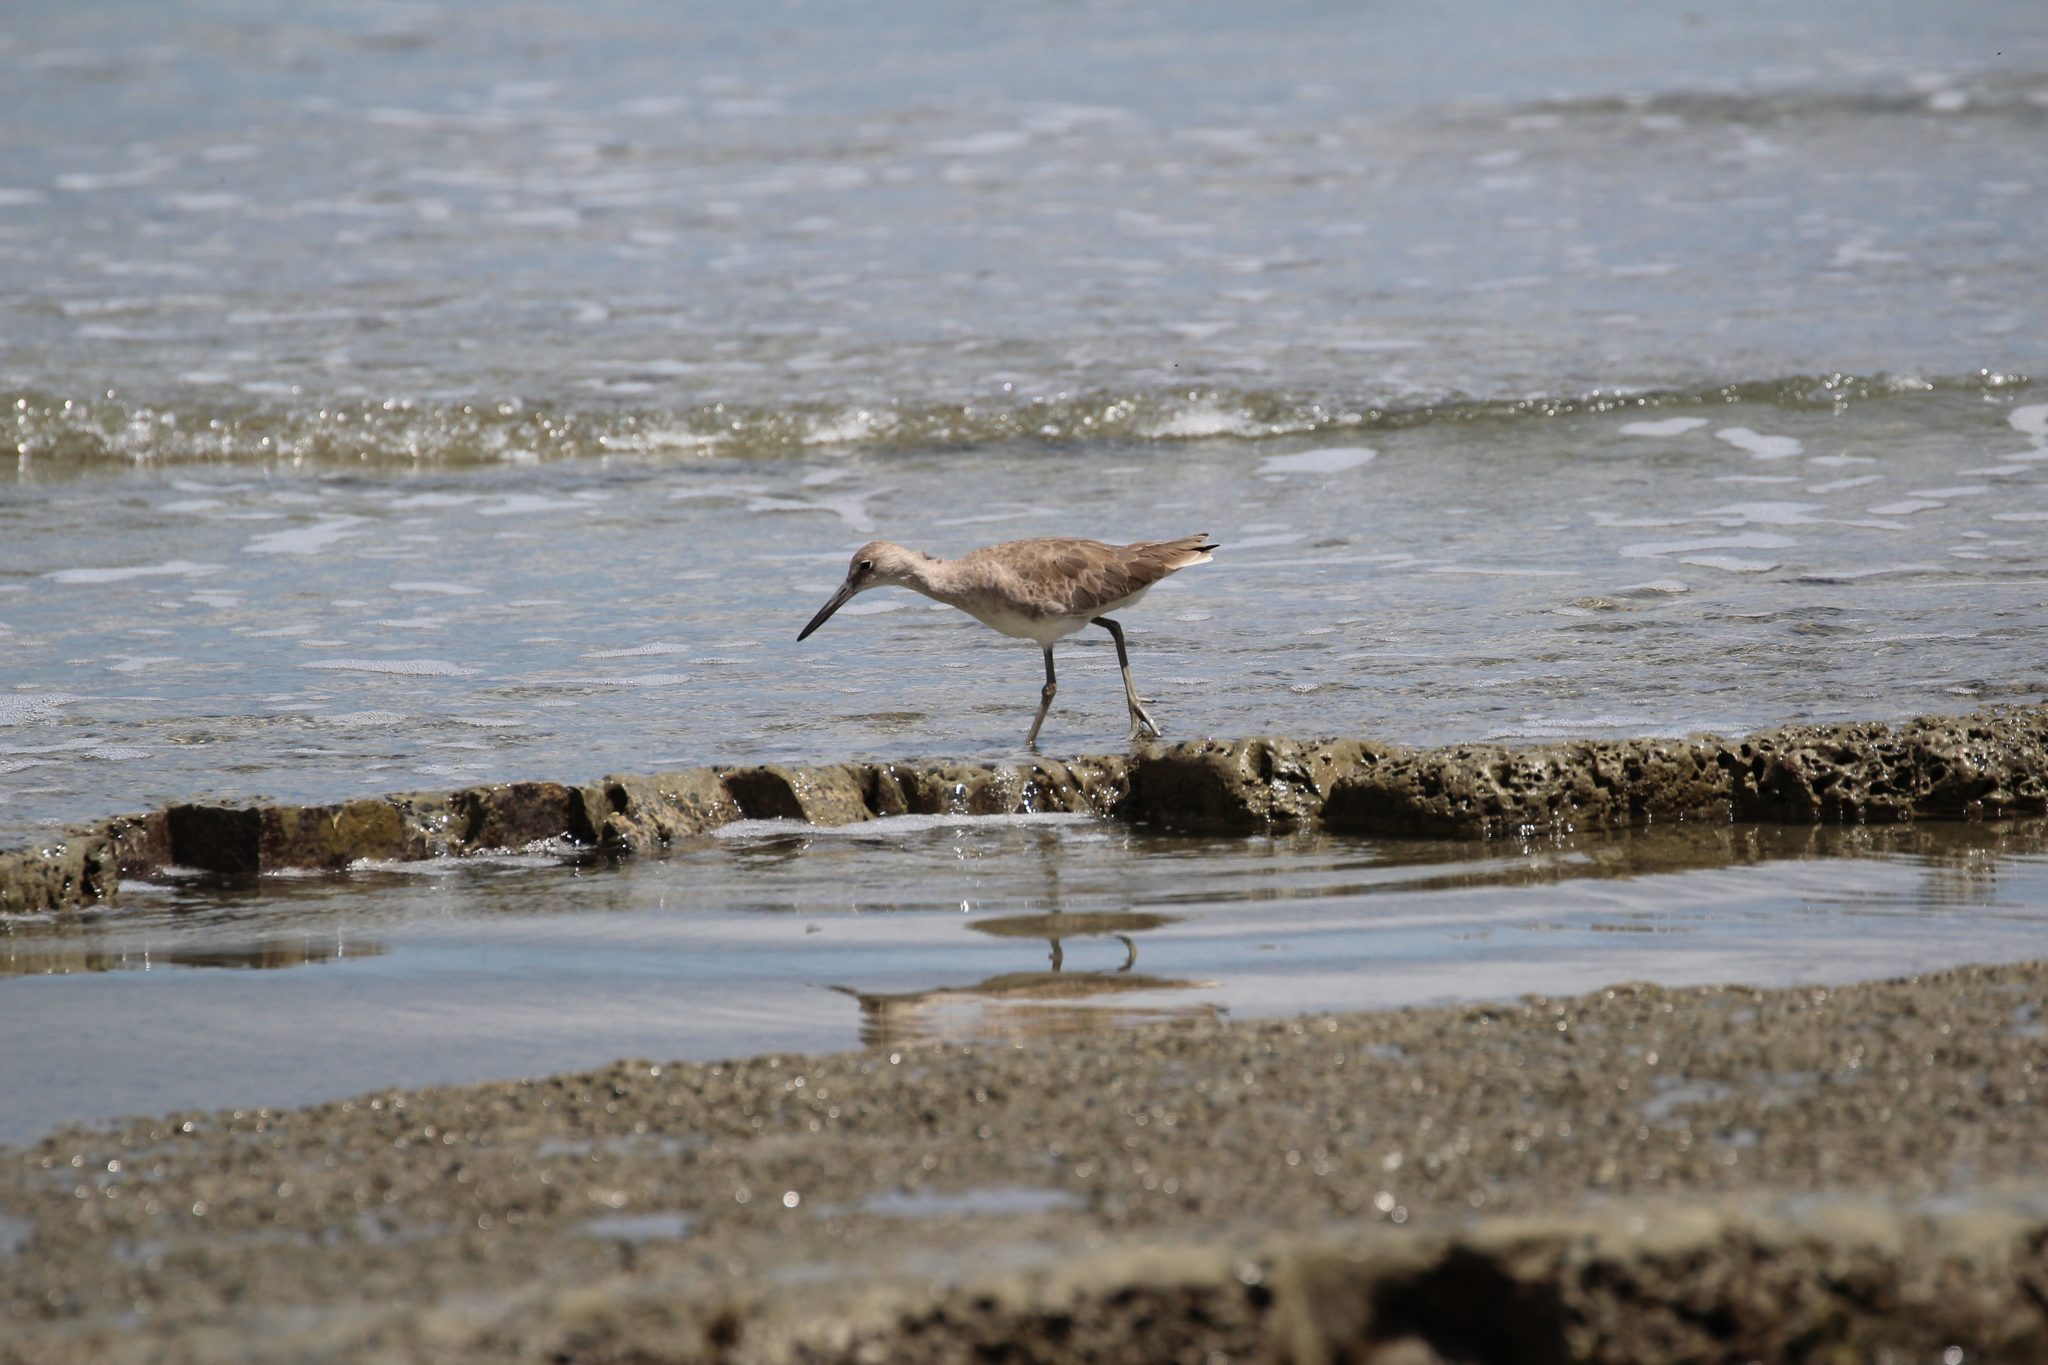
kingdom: Animalia
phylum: Chordata
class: Aves
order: Charadriiformes
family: Scolopacidae
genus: Tringa
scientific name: Tringa semipalmata
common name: Willet
